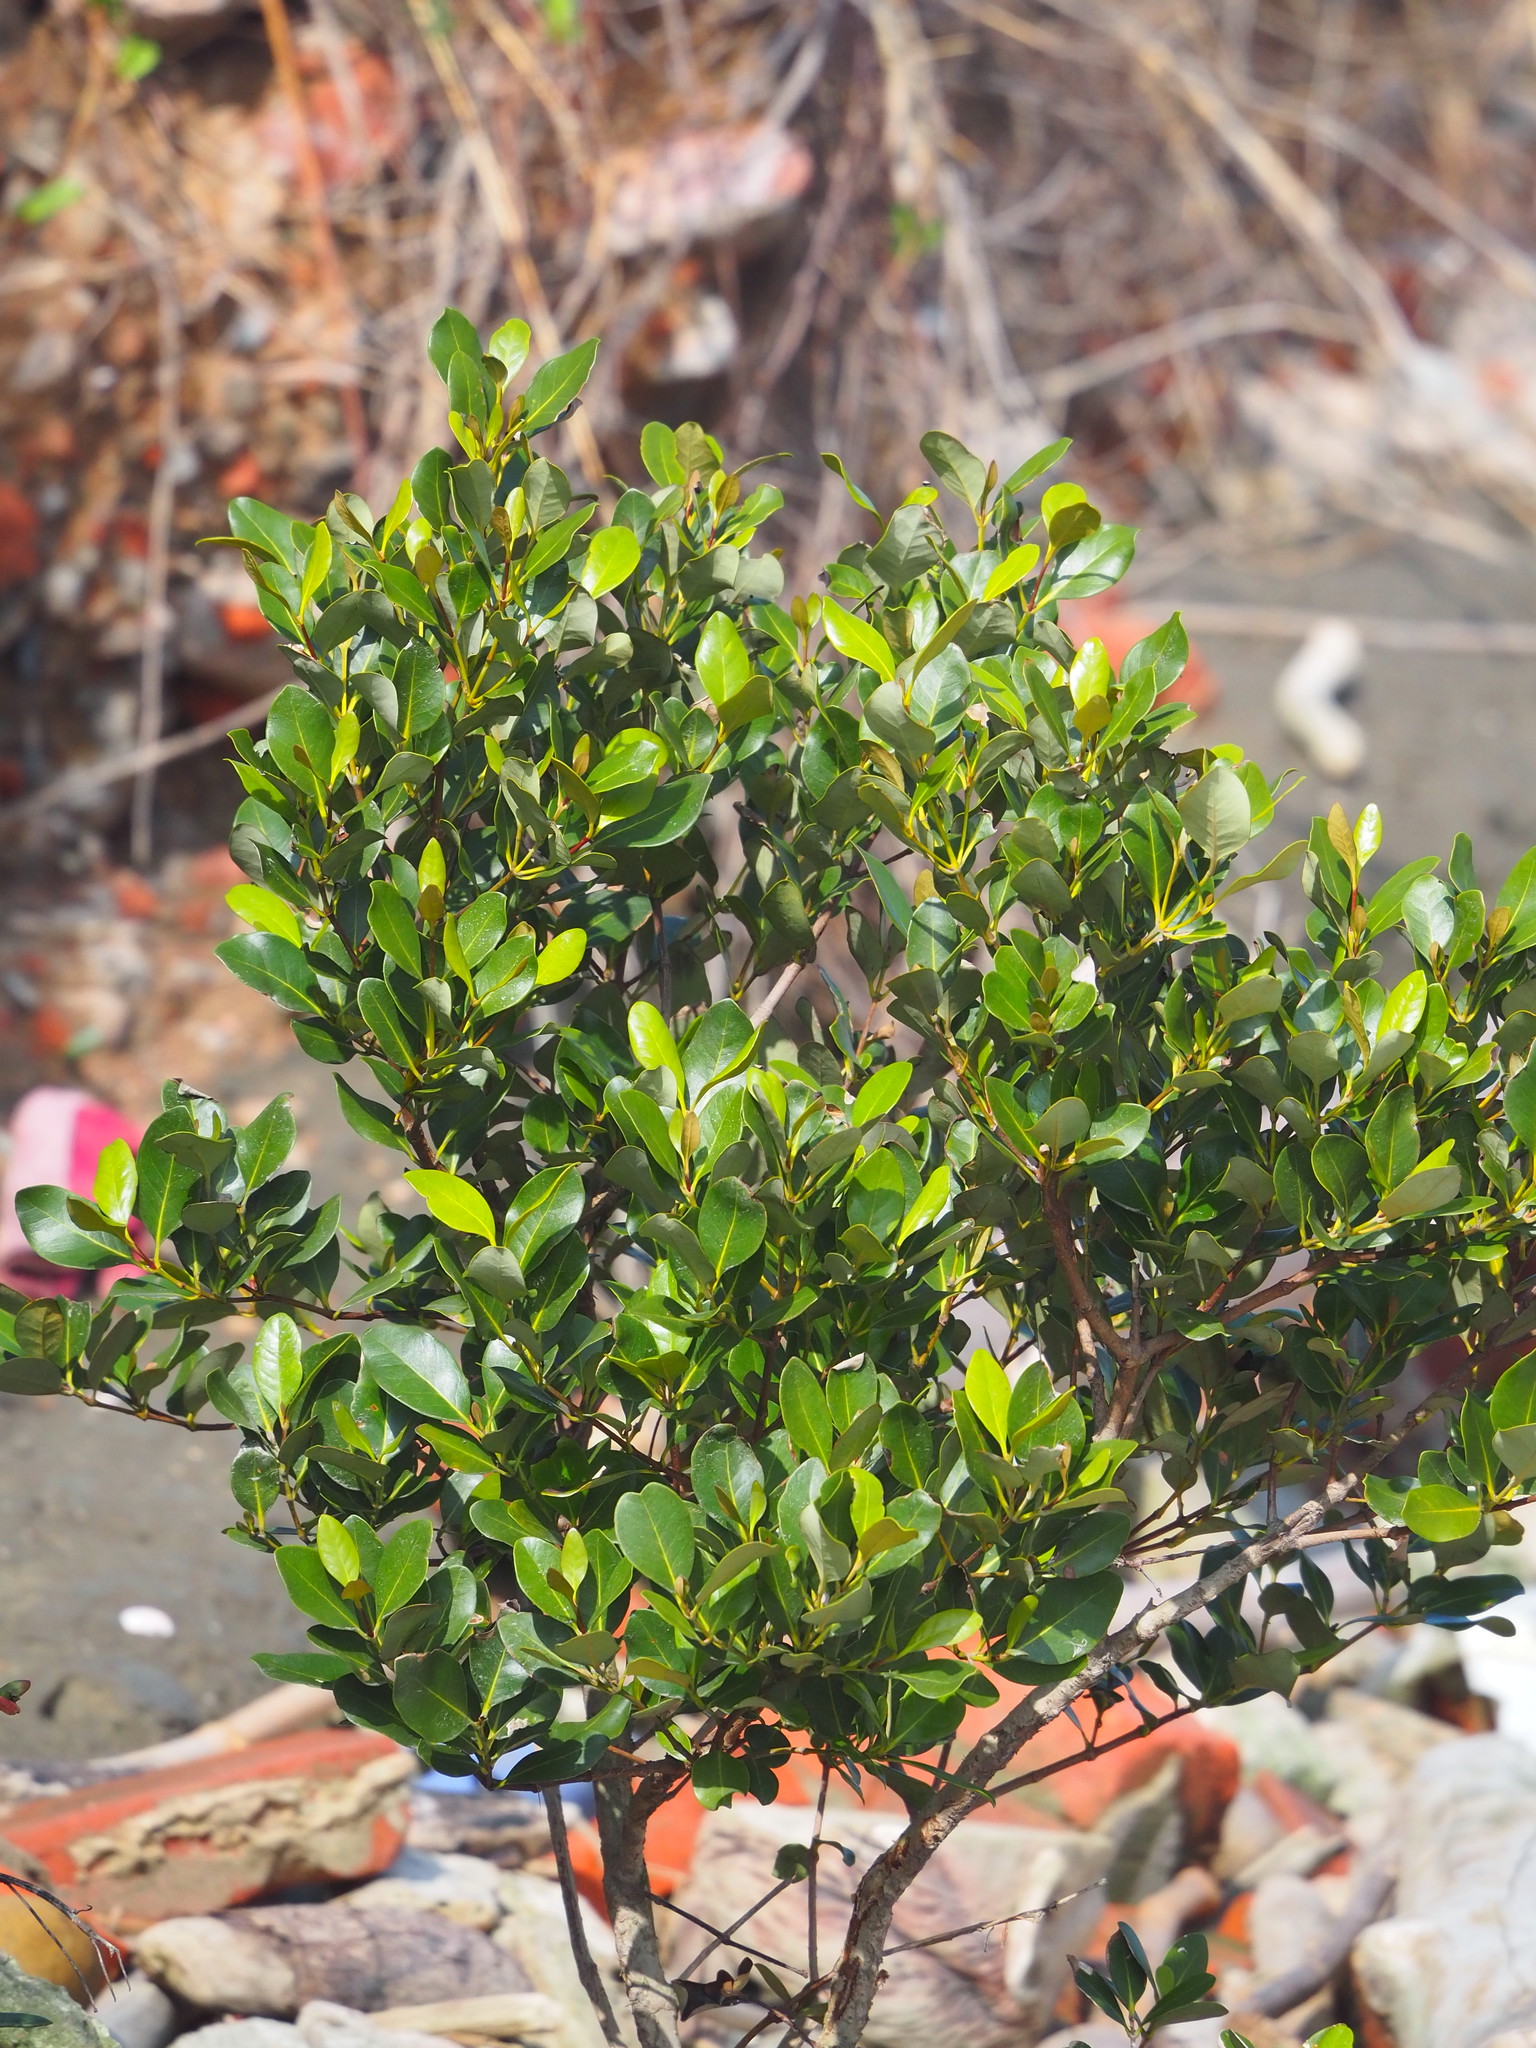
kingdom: Plantae
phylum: Tracheophyta
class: Magnoliopsida
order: Lamiales
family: Acanthaceae
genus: Avicennia
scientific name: Avicennia marina
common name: Gray mangrove
